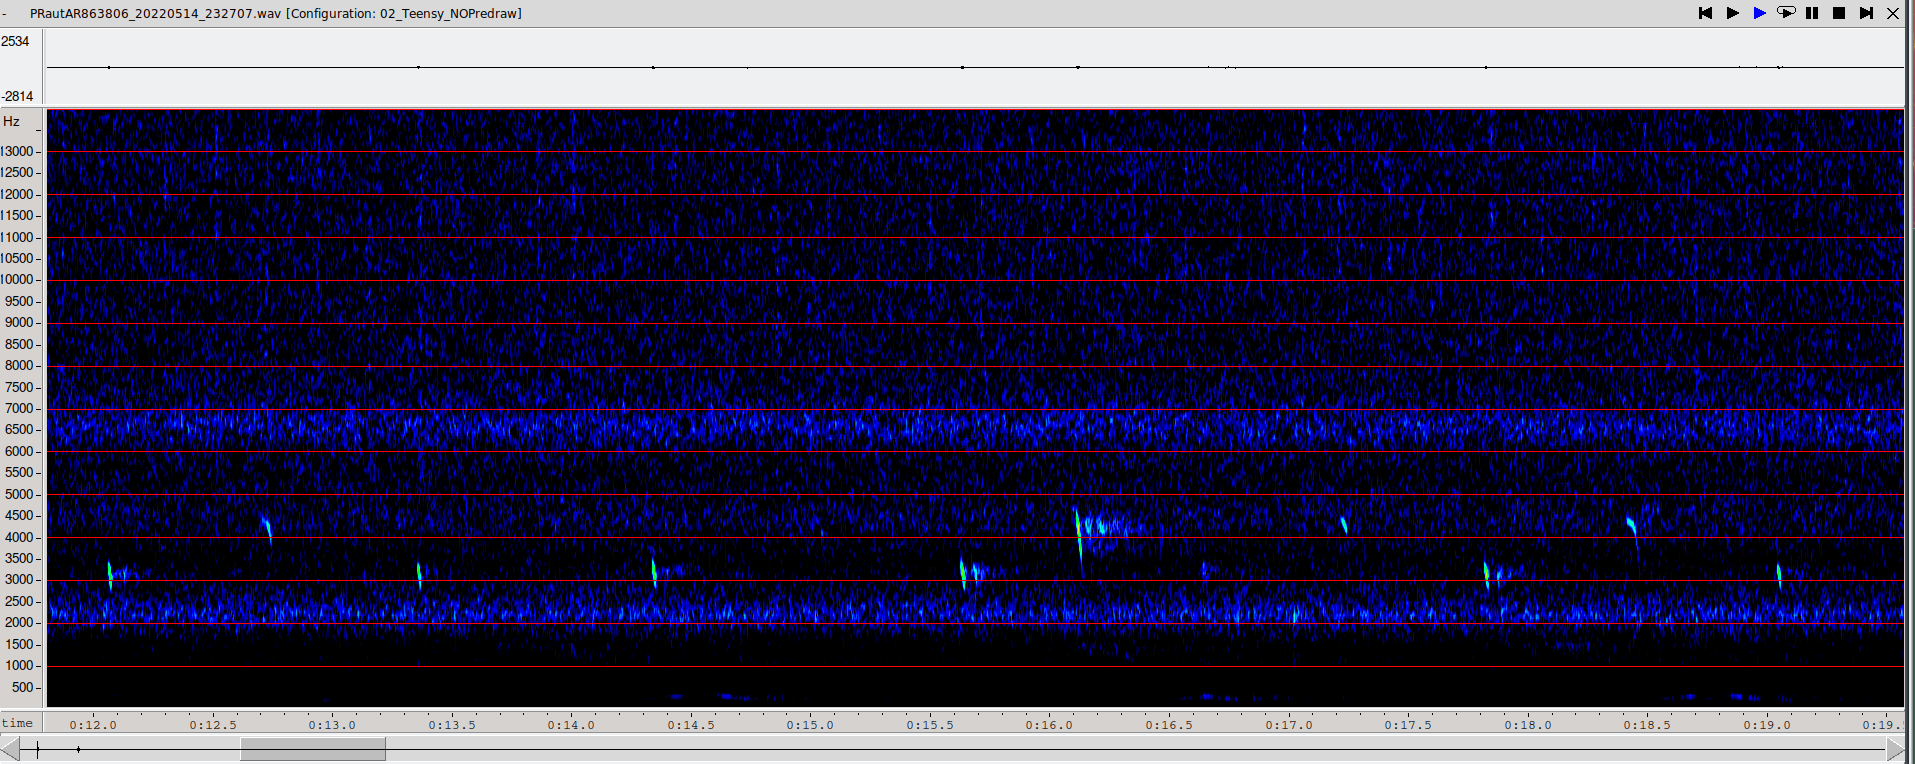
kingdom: Animalia
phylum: Chordata
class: Mammalia
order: Chiroptera
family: Vespertilionidae
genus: Barbastella
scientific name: Barbastella barbastellus
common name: Western barbastelle
